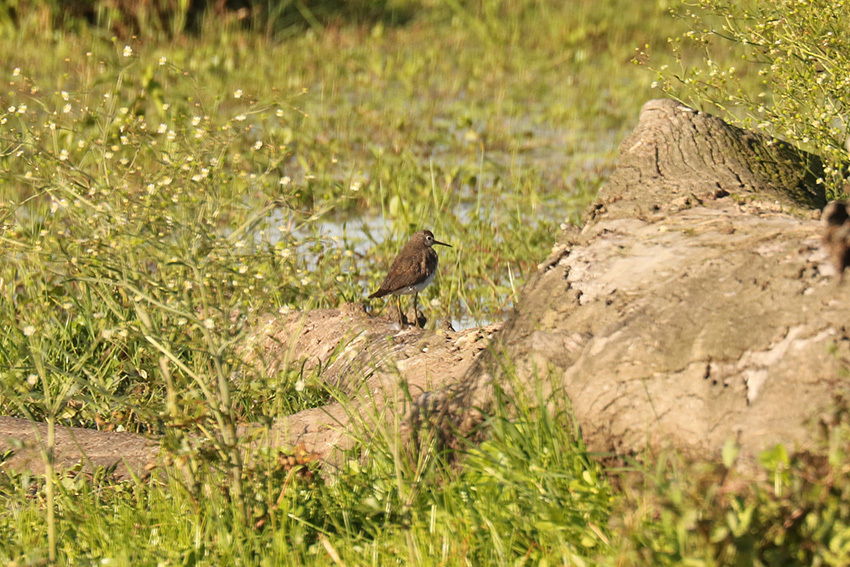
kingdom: Animalia
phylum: Chordata
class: Aves
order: Charadriiformes
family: Scolopacidae
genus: Tringa
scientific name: Tringa solitaria
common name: Solitary sandpiper
